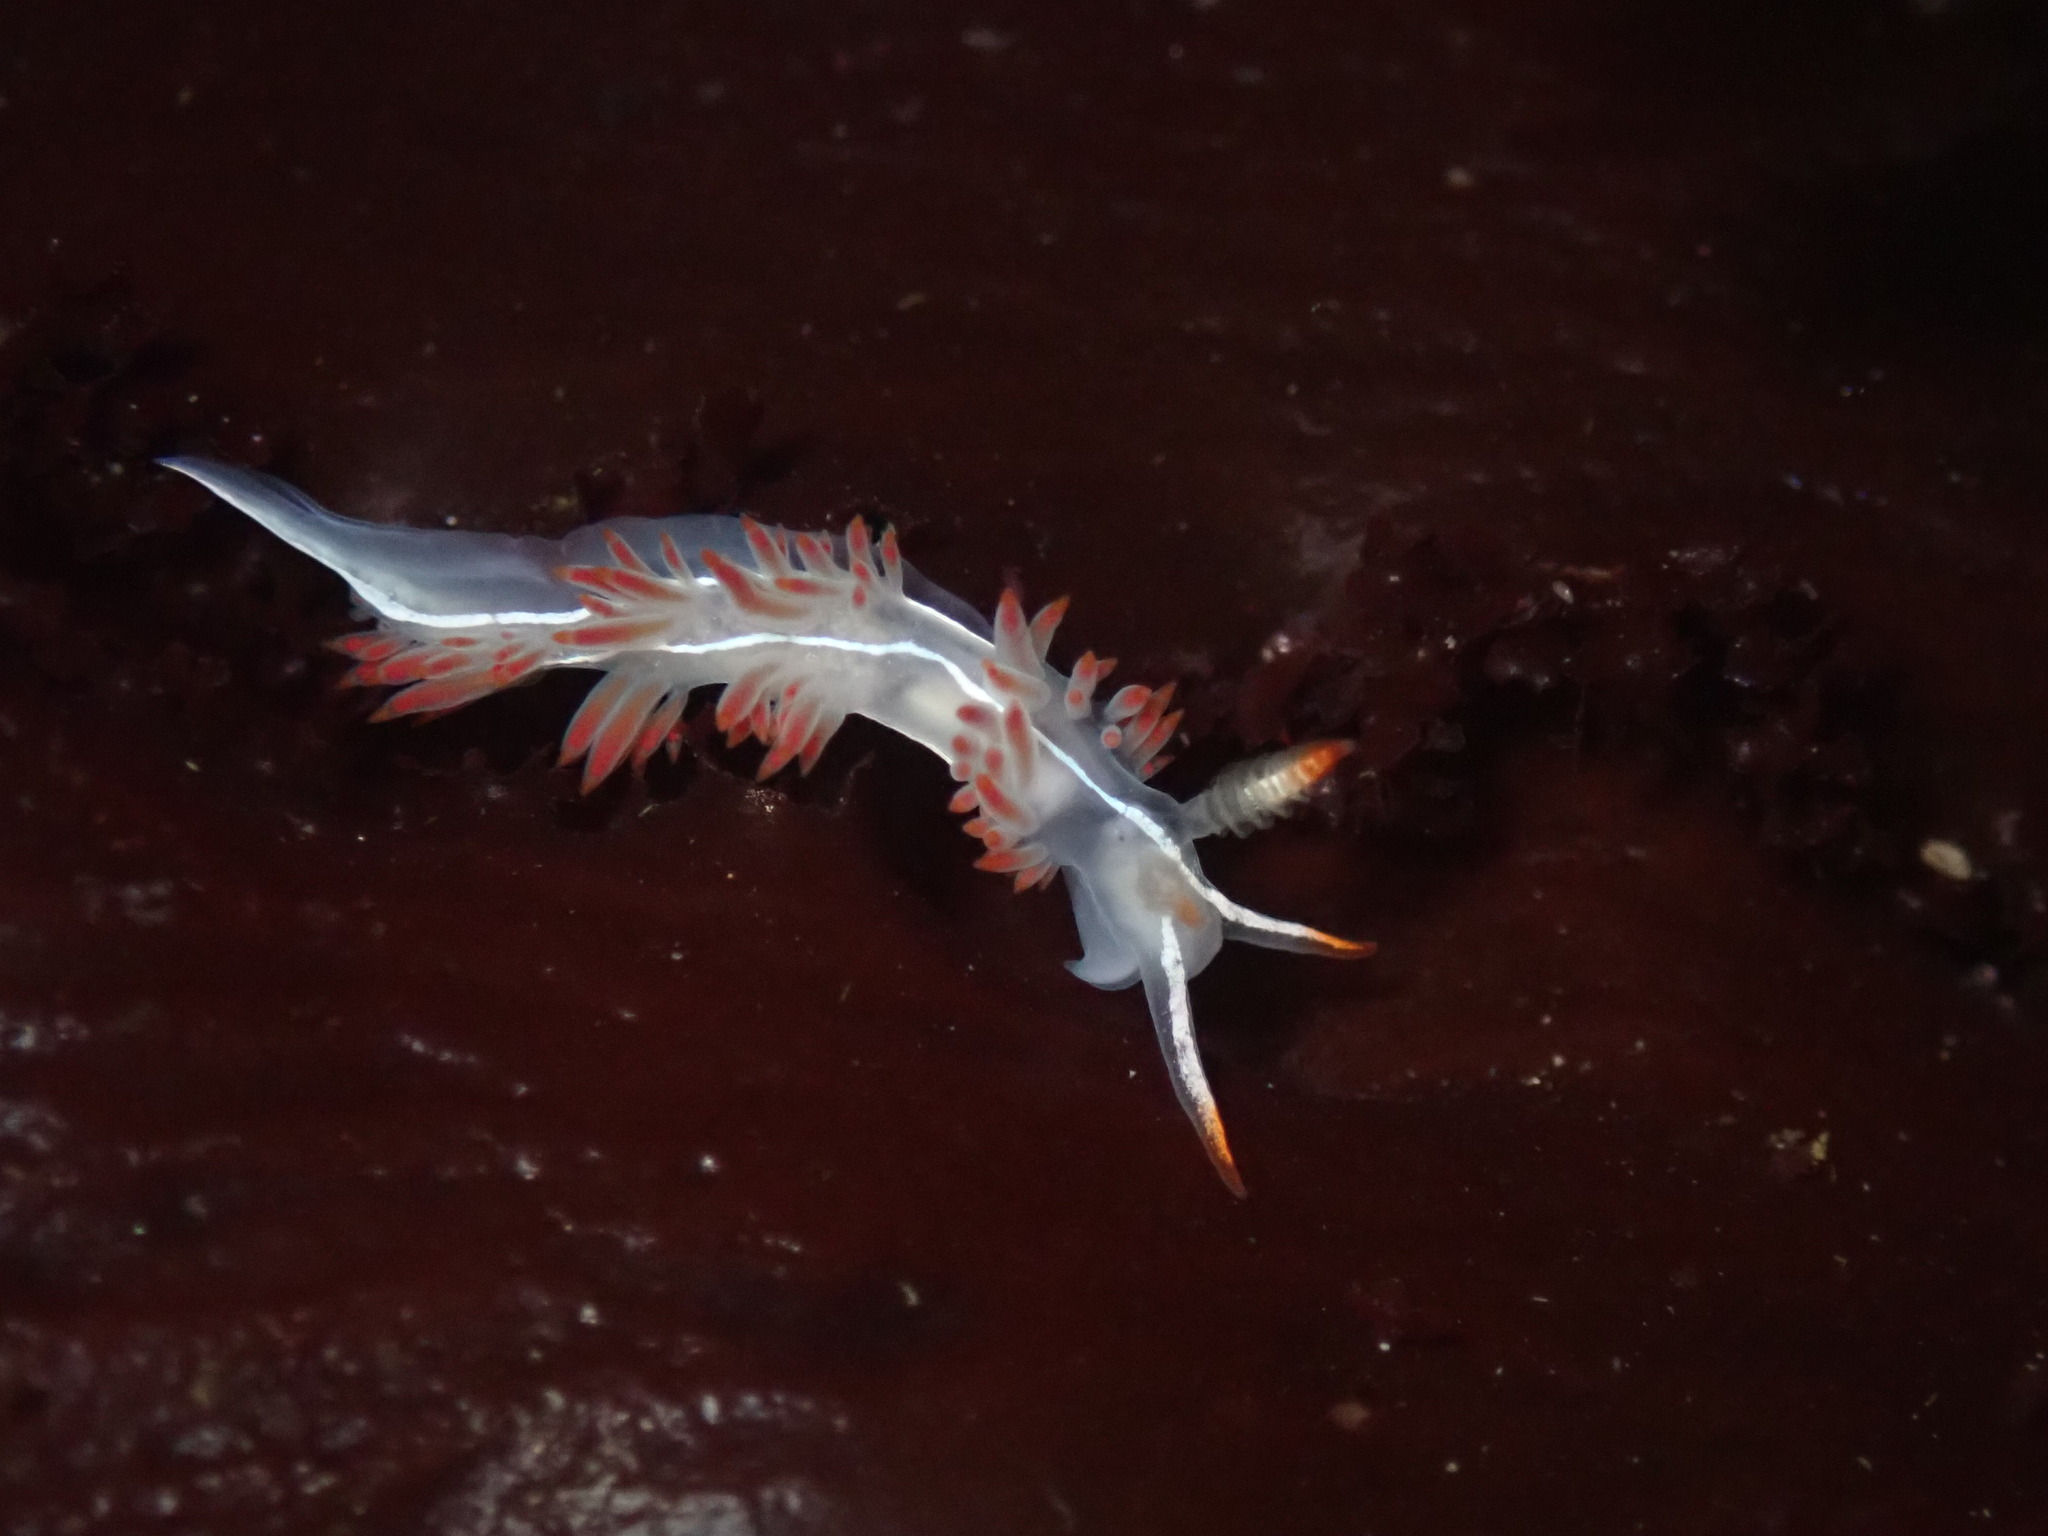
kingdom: Animalia
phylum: Mollusca
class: Gastropoda
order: Nudibranchia
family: Coryphellidae
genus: Coryphella
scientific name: Coryphella trilineata
